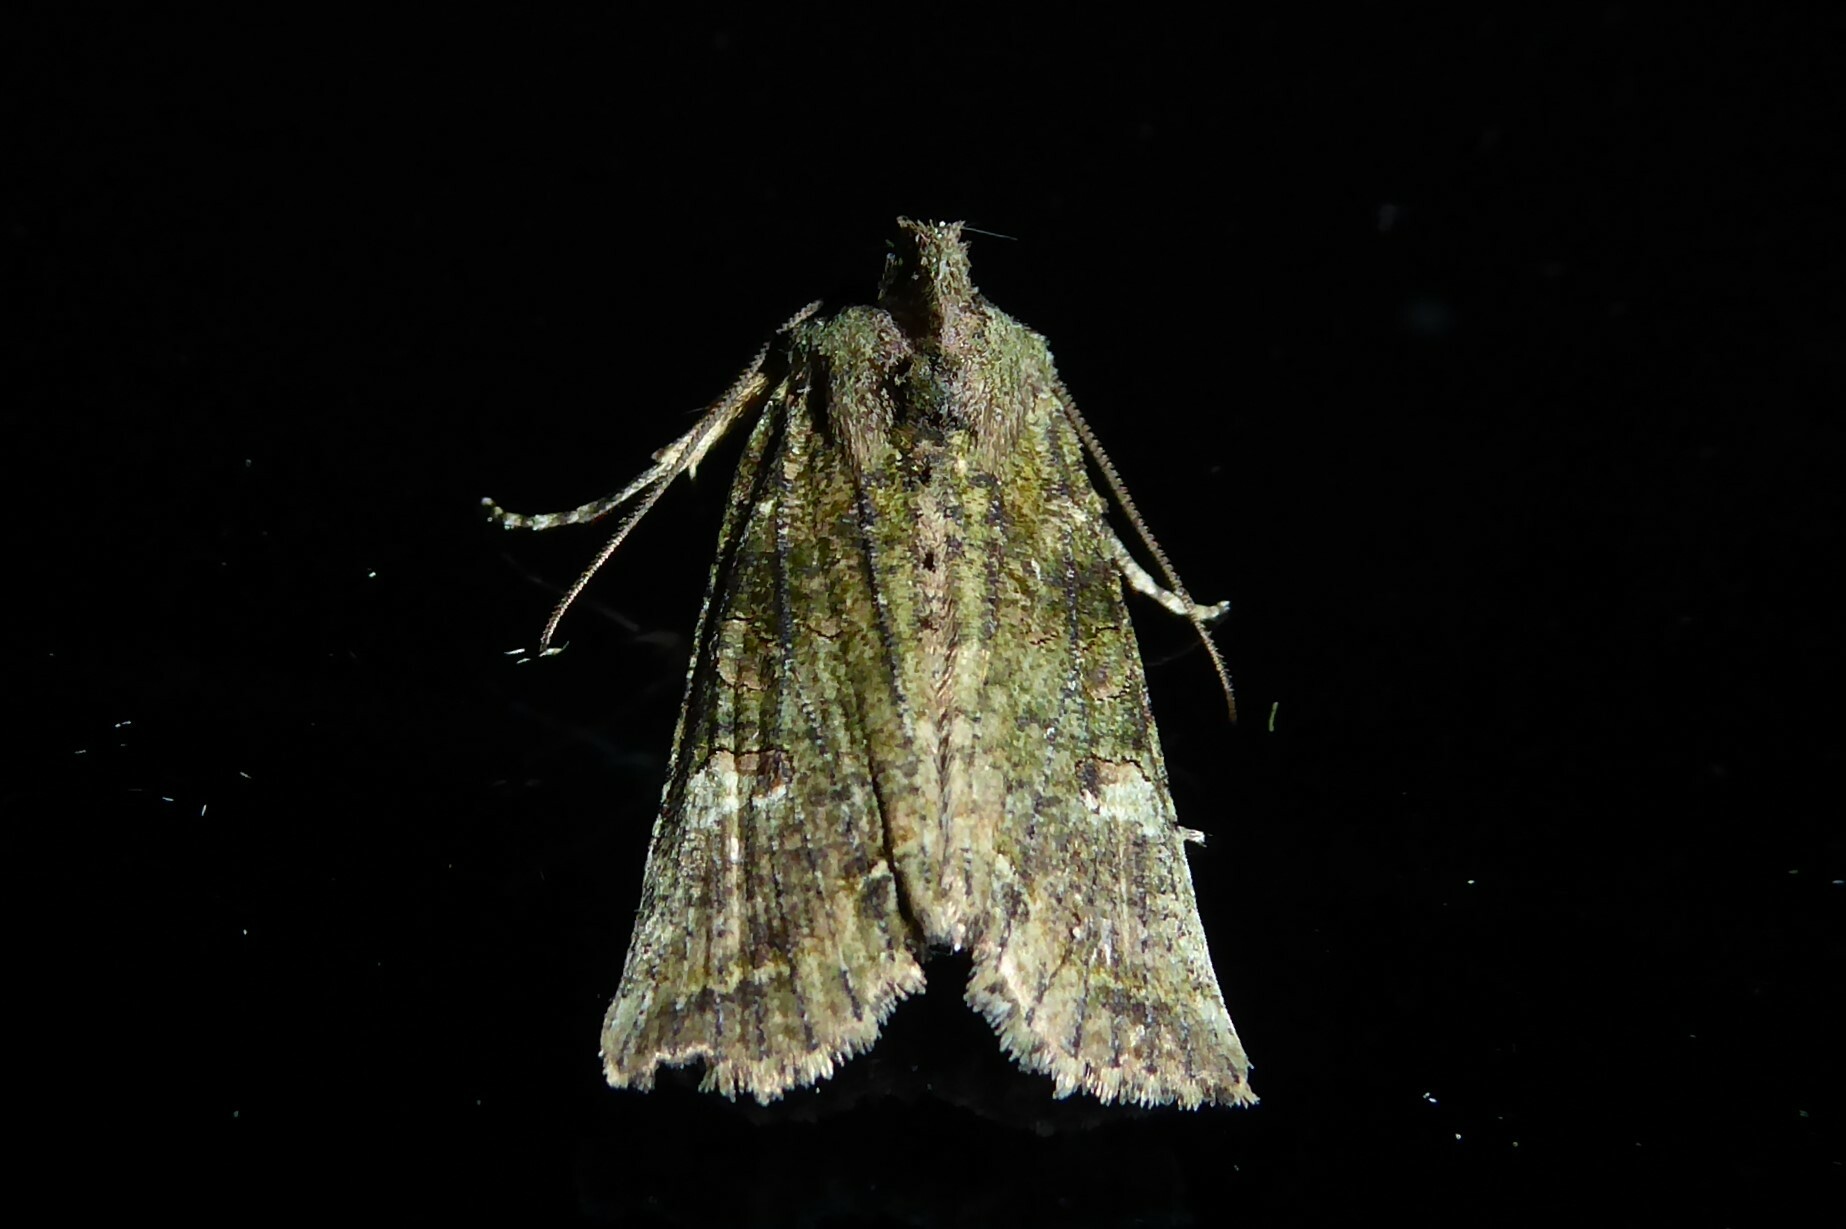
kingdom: Animalia
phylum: Arthropoda
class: Insecta
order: Lepidoptera
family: Noctuidae
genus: Meterana
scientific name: Meterana levis
